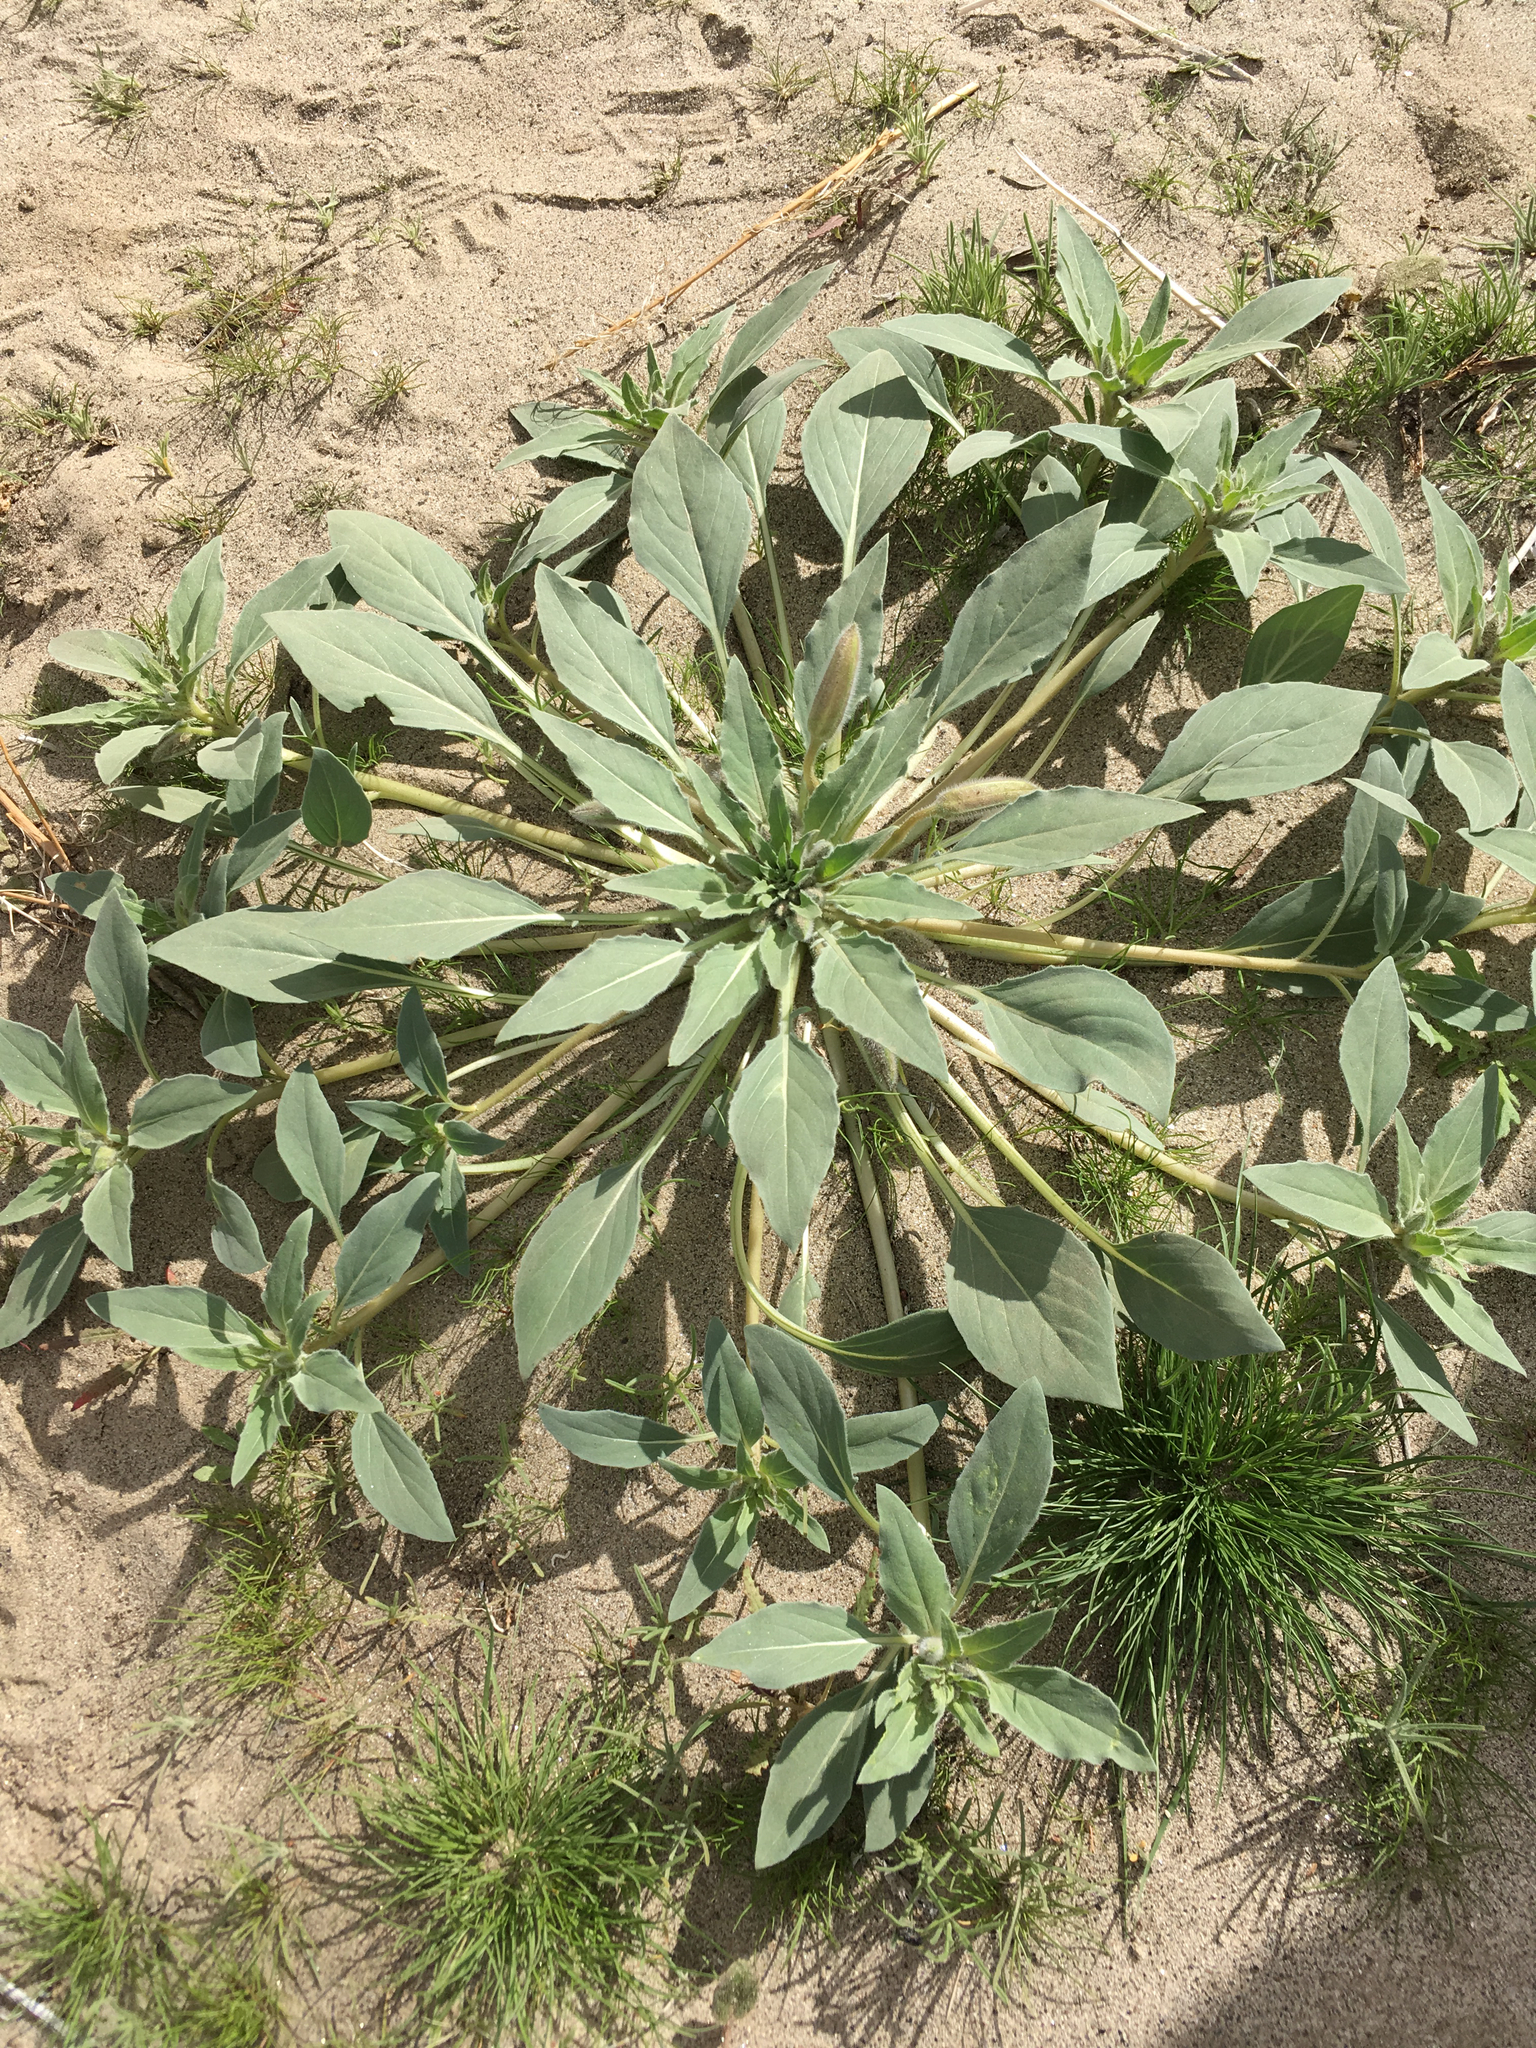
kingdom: Plantae
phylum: Tracheophyta
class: Magnoliopsida
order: Myrtales
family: Onagraceae
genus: Oenothera
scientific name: Oenothera deltoides
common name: Basket evening-primrose
